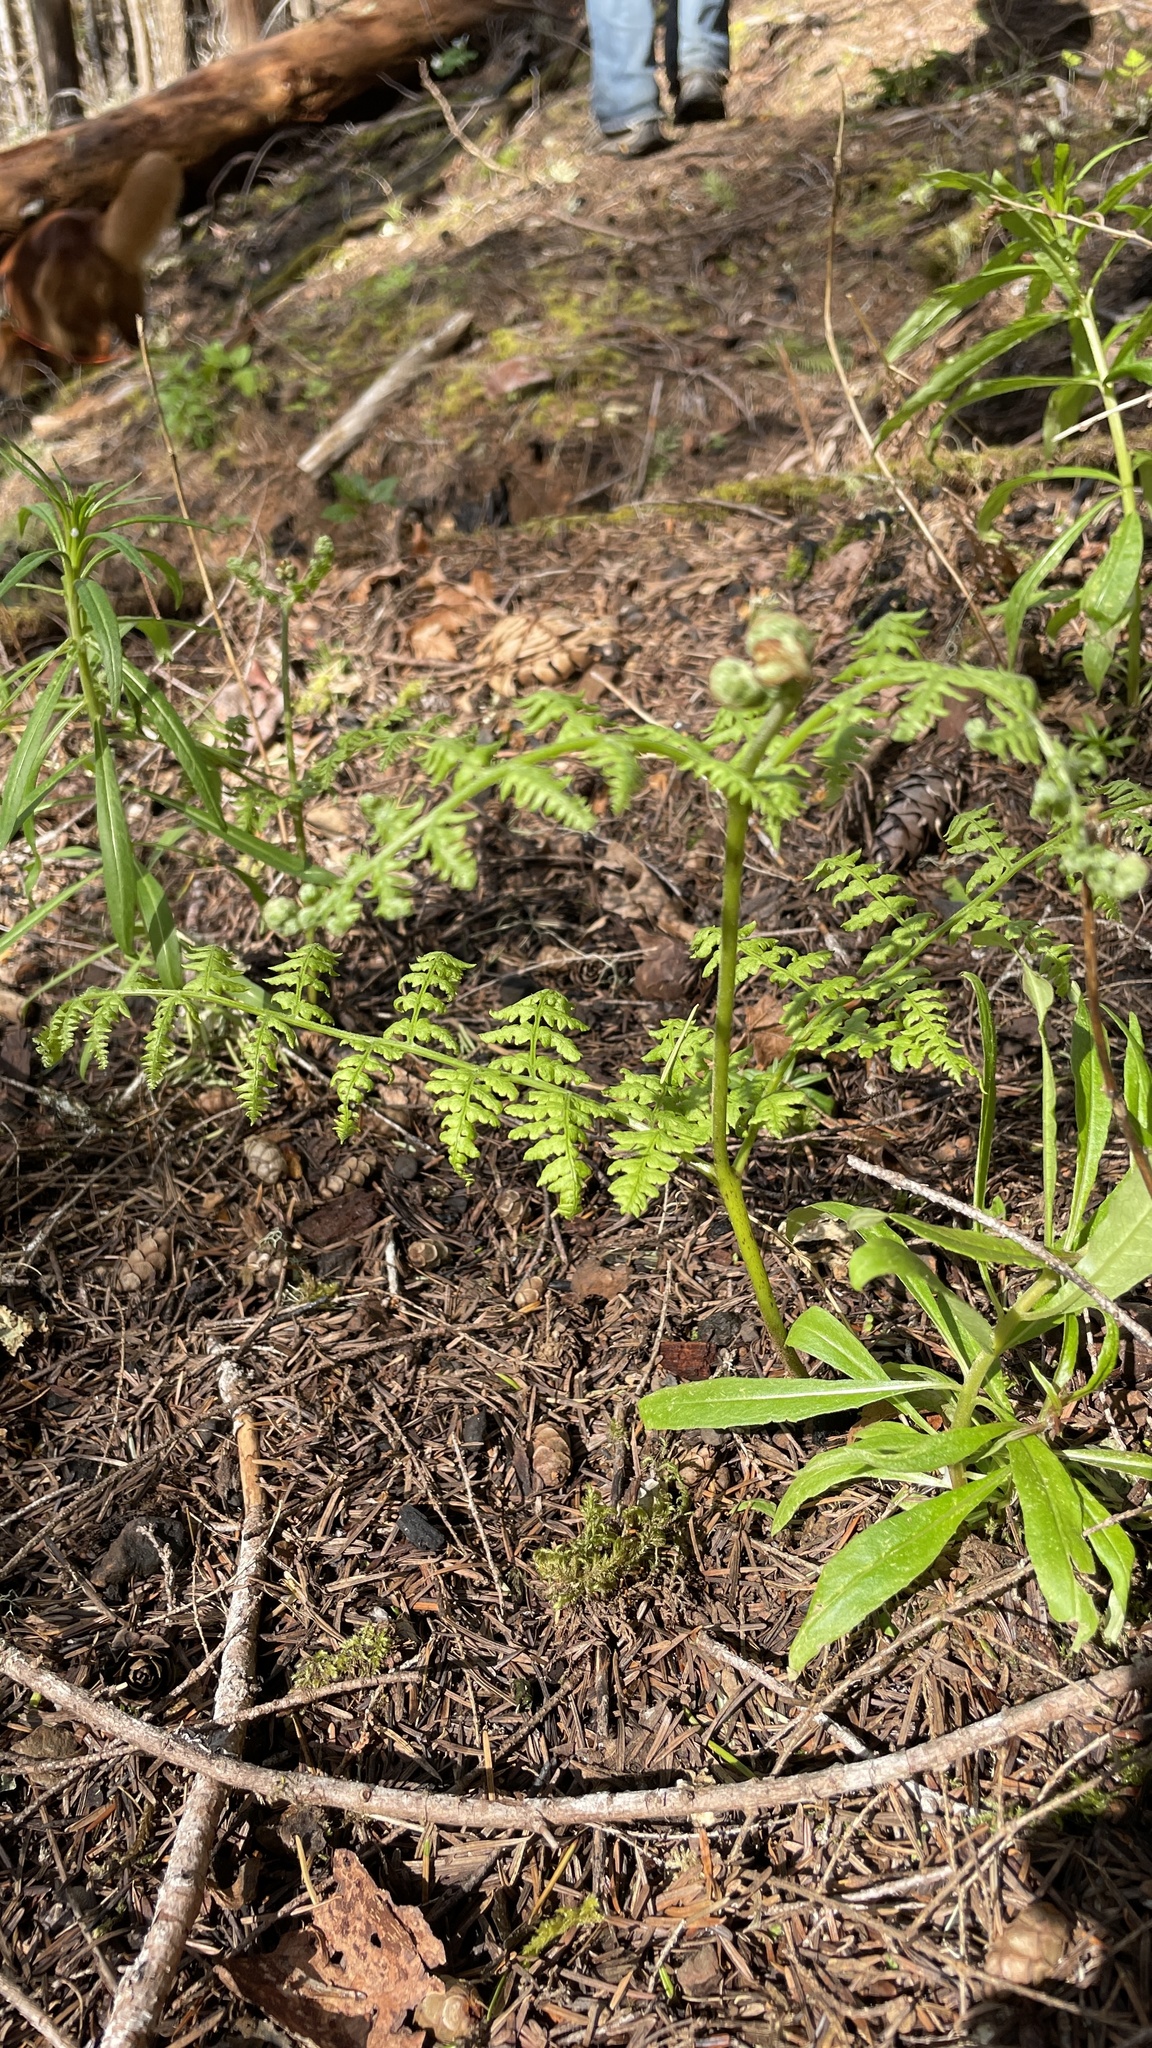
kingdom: Plantae
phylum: Tracheophyta
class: Polypodiopsida
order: Polypodiales
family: Dennstaedtiaceae
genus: Pteridium
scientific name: Pteridium aquilinum
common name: Bracken
